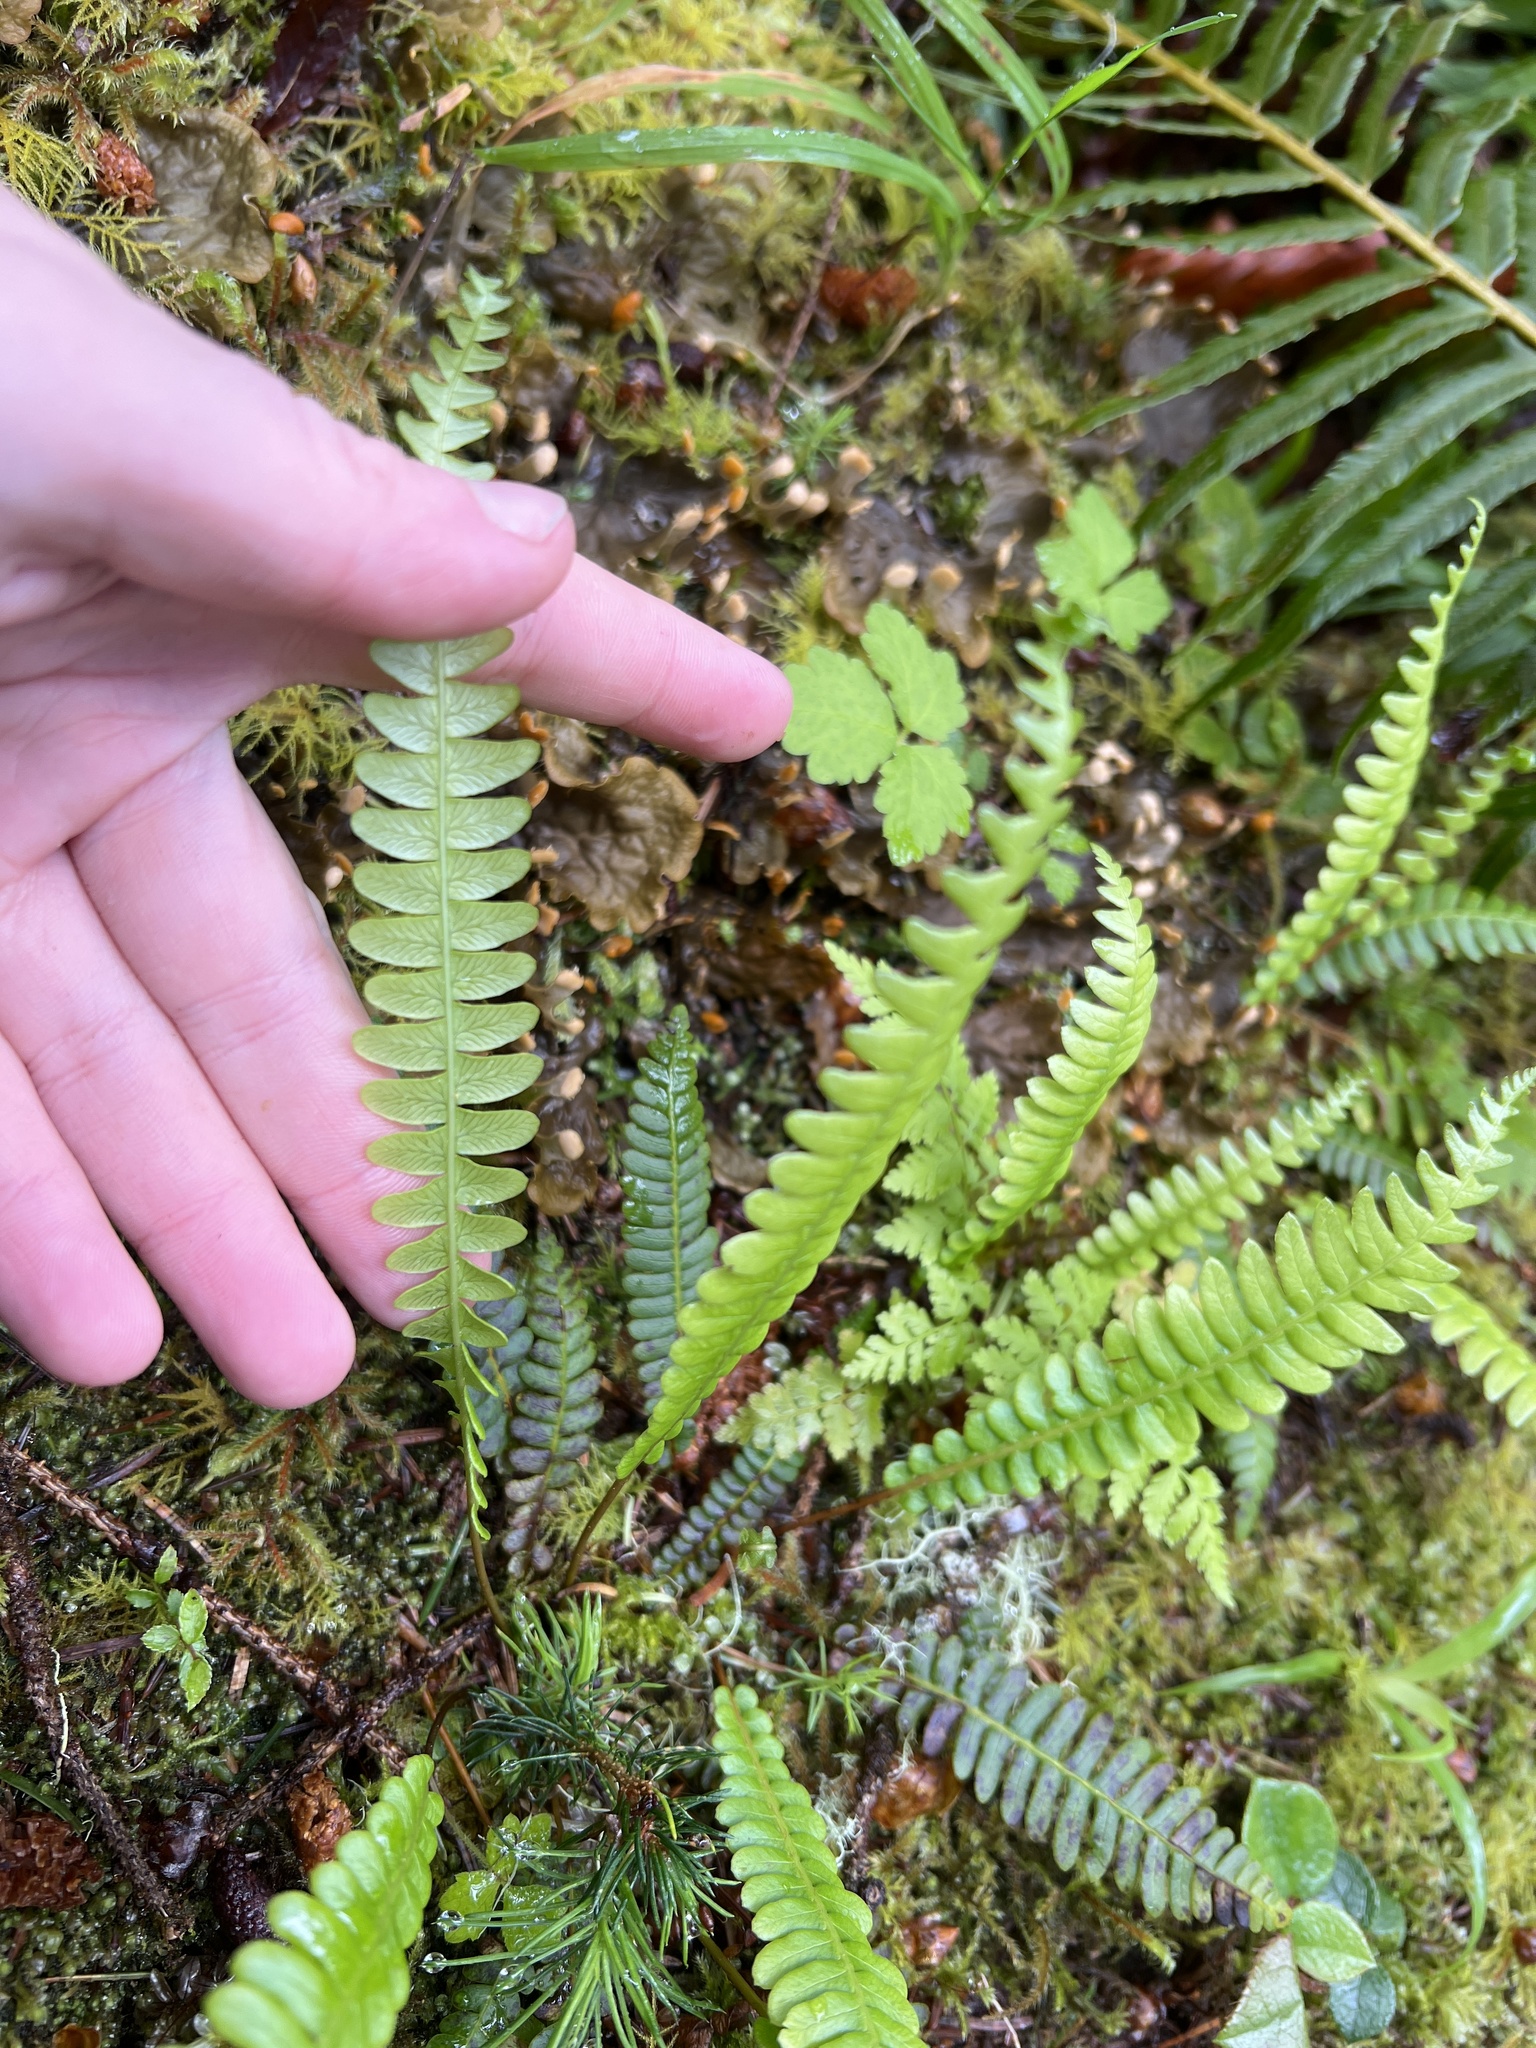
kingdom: Plantae
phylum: Tracheophyta
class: Polypodiopsida
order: Polypodiales
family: Blechnaceae
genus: Struthiopteris
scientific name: Struthiopteris spicant
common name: Deer fern
